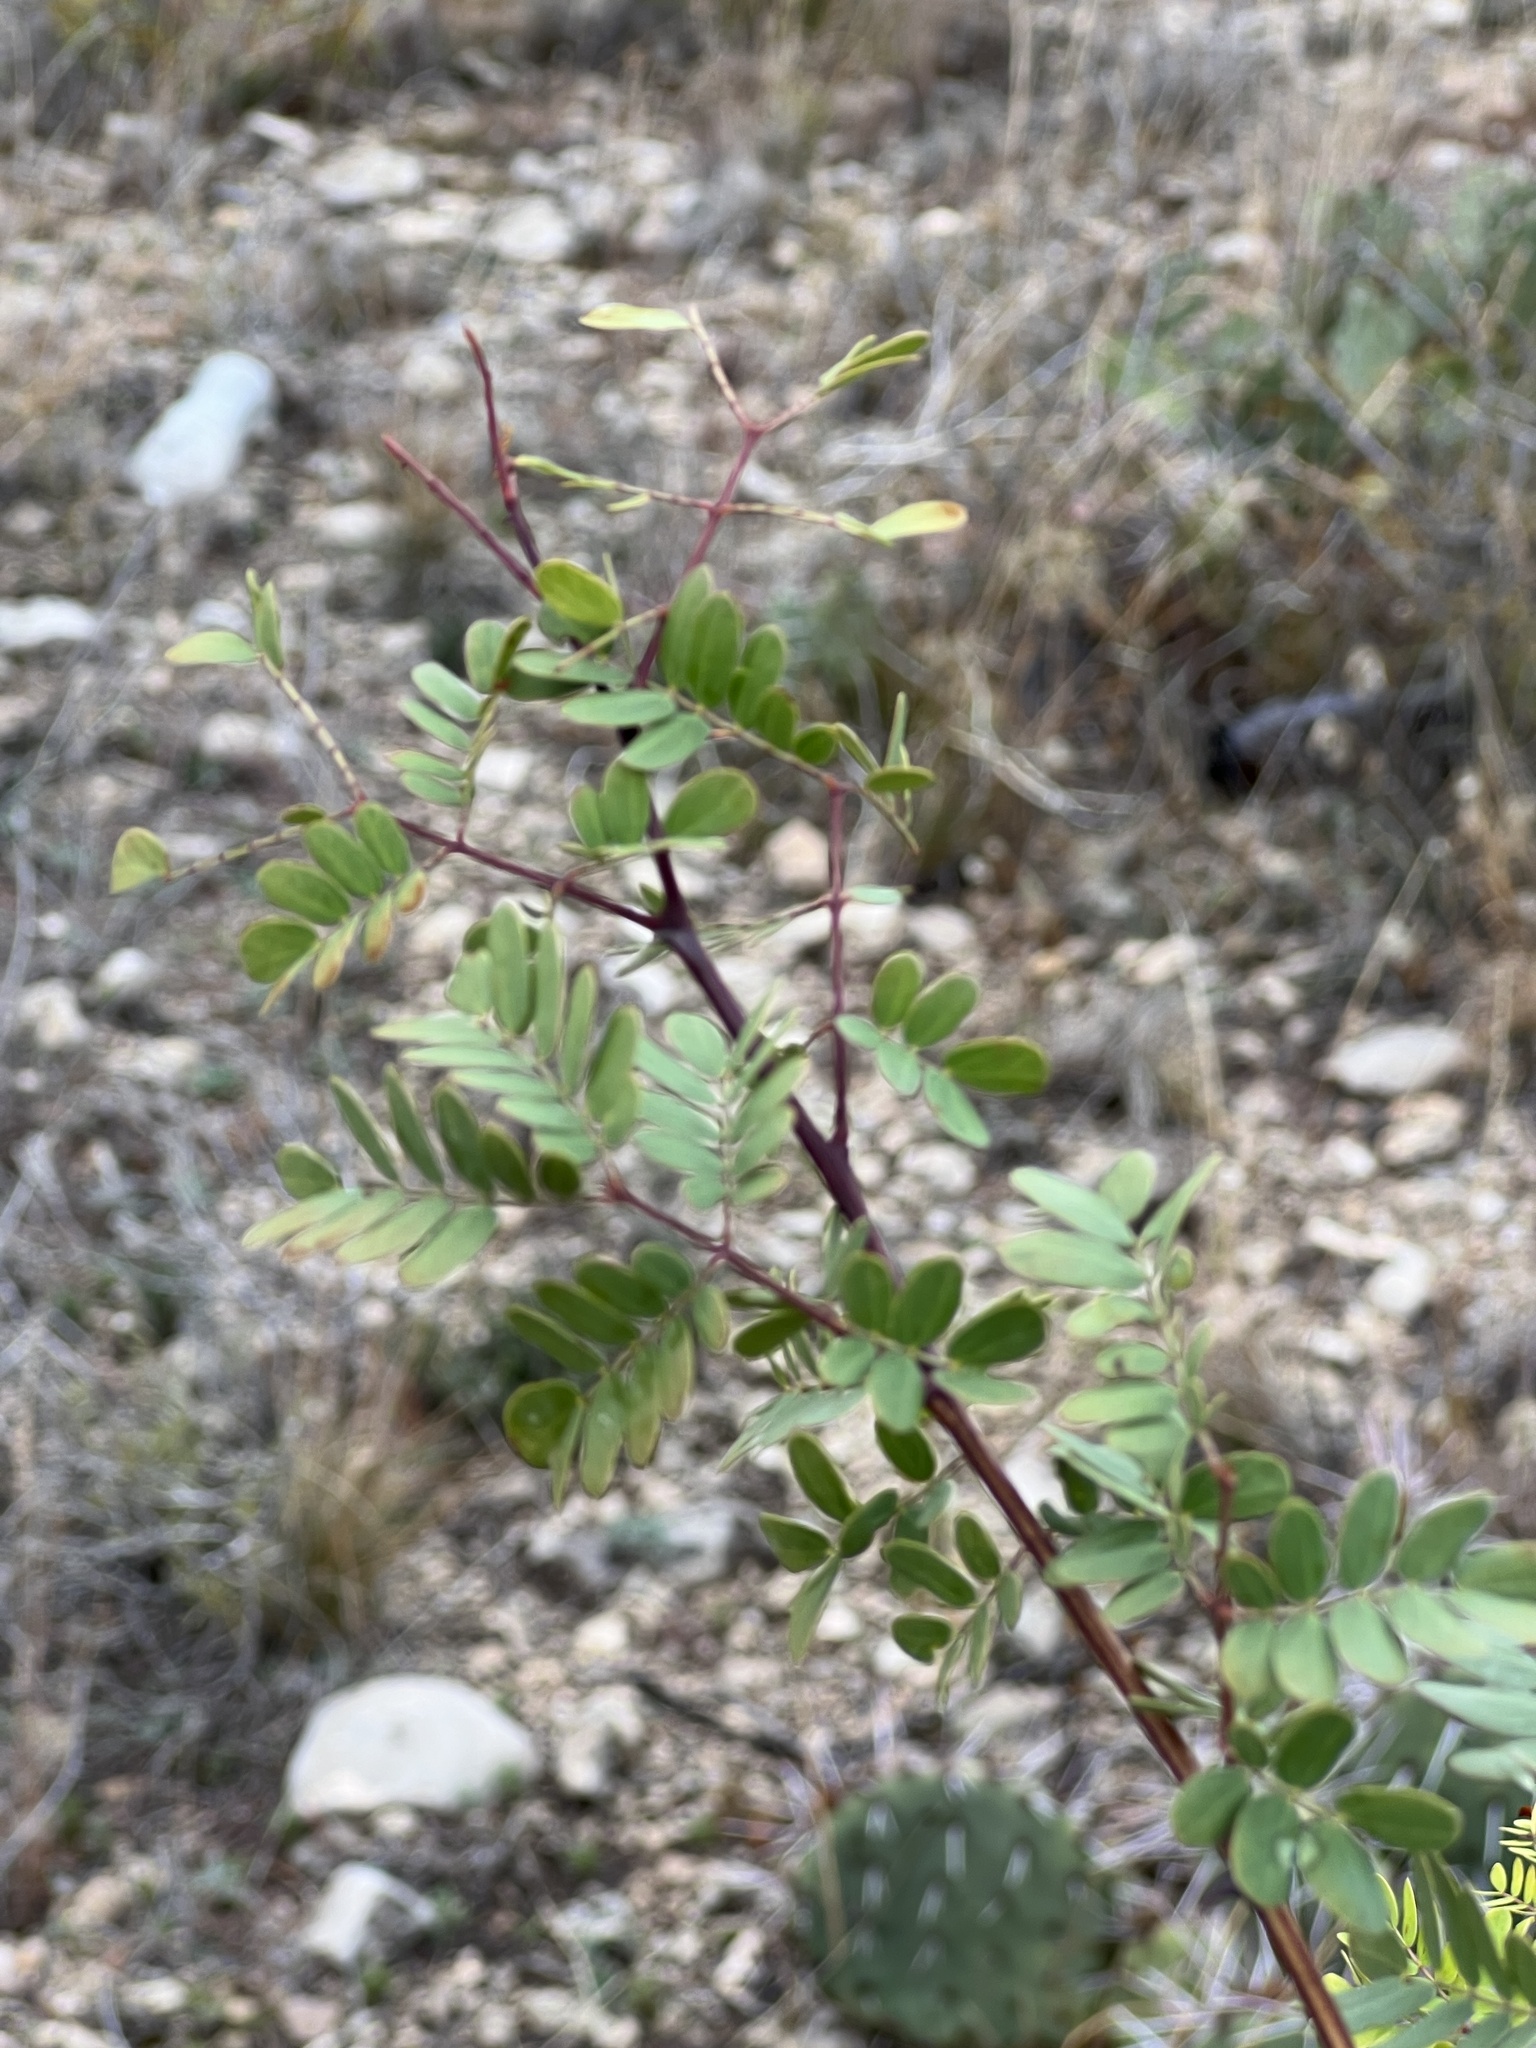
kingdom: Plantae
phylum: Tracheophyta
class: Magnoliopsida
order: Fabales
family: Fabaceae
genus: Senegalia
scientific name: Senegalia roemeriana
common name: Roemer's acacia
